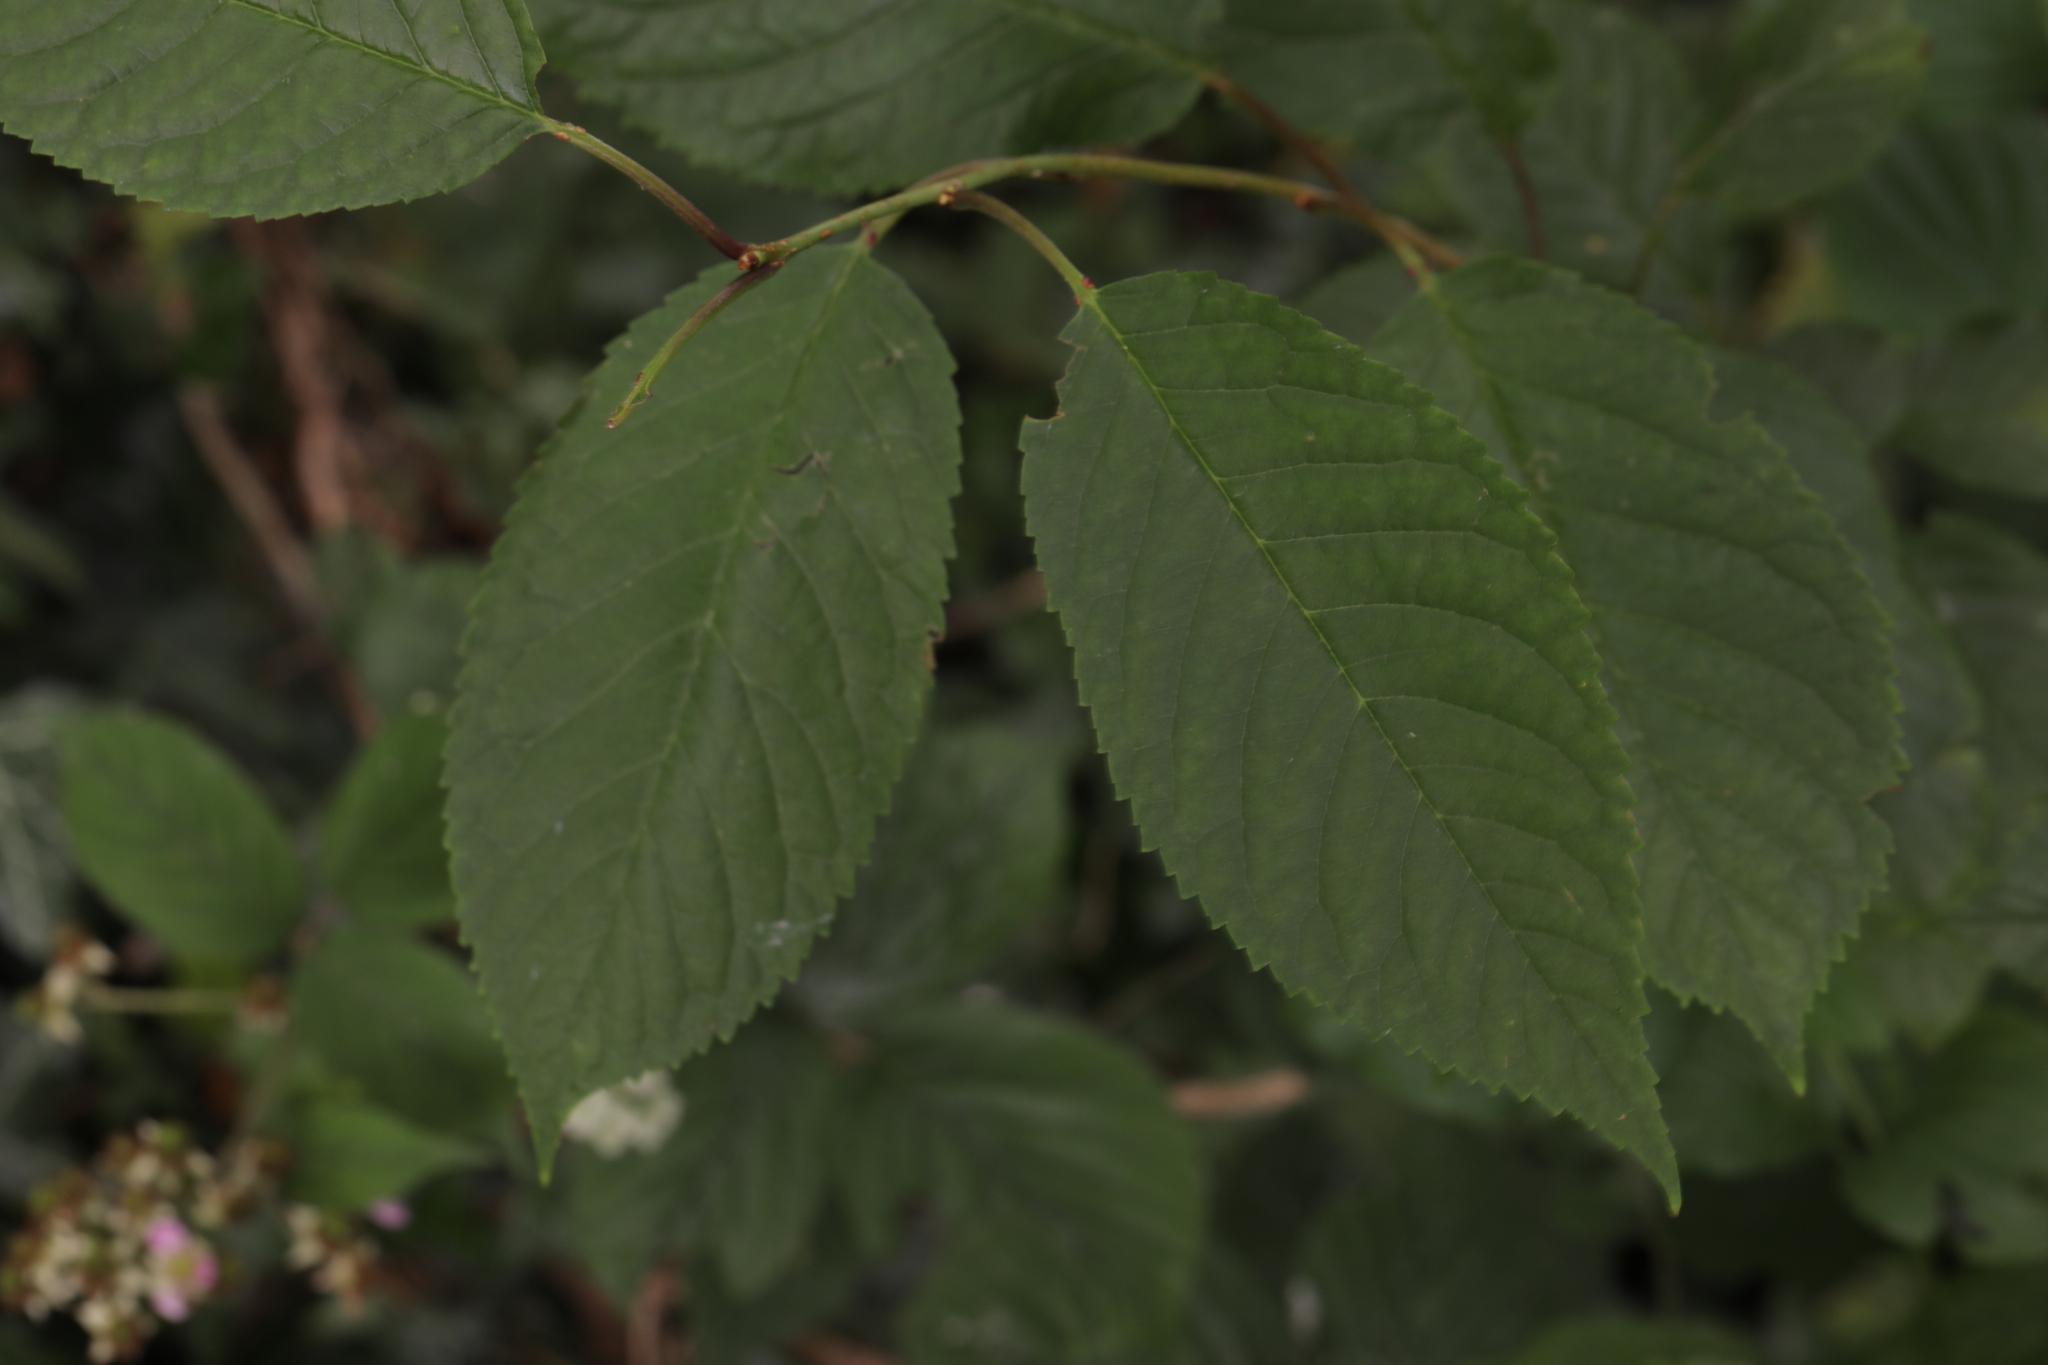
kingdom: Plantae
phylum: Tracheophyta
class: Magnoliopsida
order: Rosales
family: Rosaceae
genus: Prunus
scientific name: Prunus avium
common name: Sweet cherry
